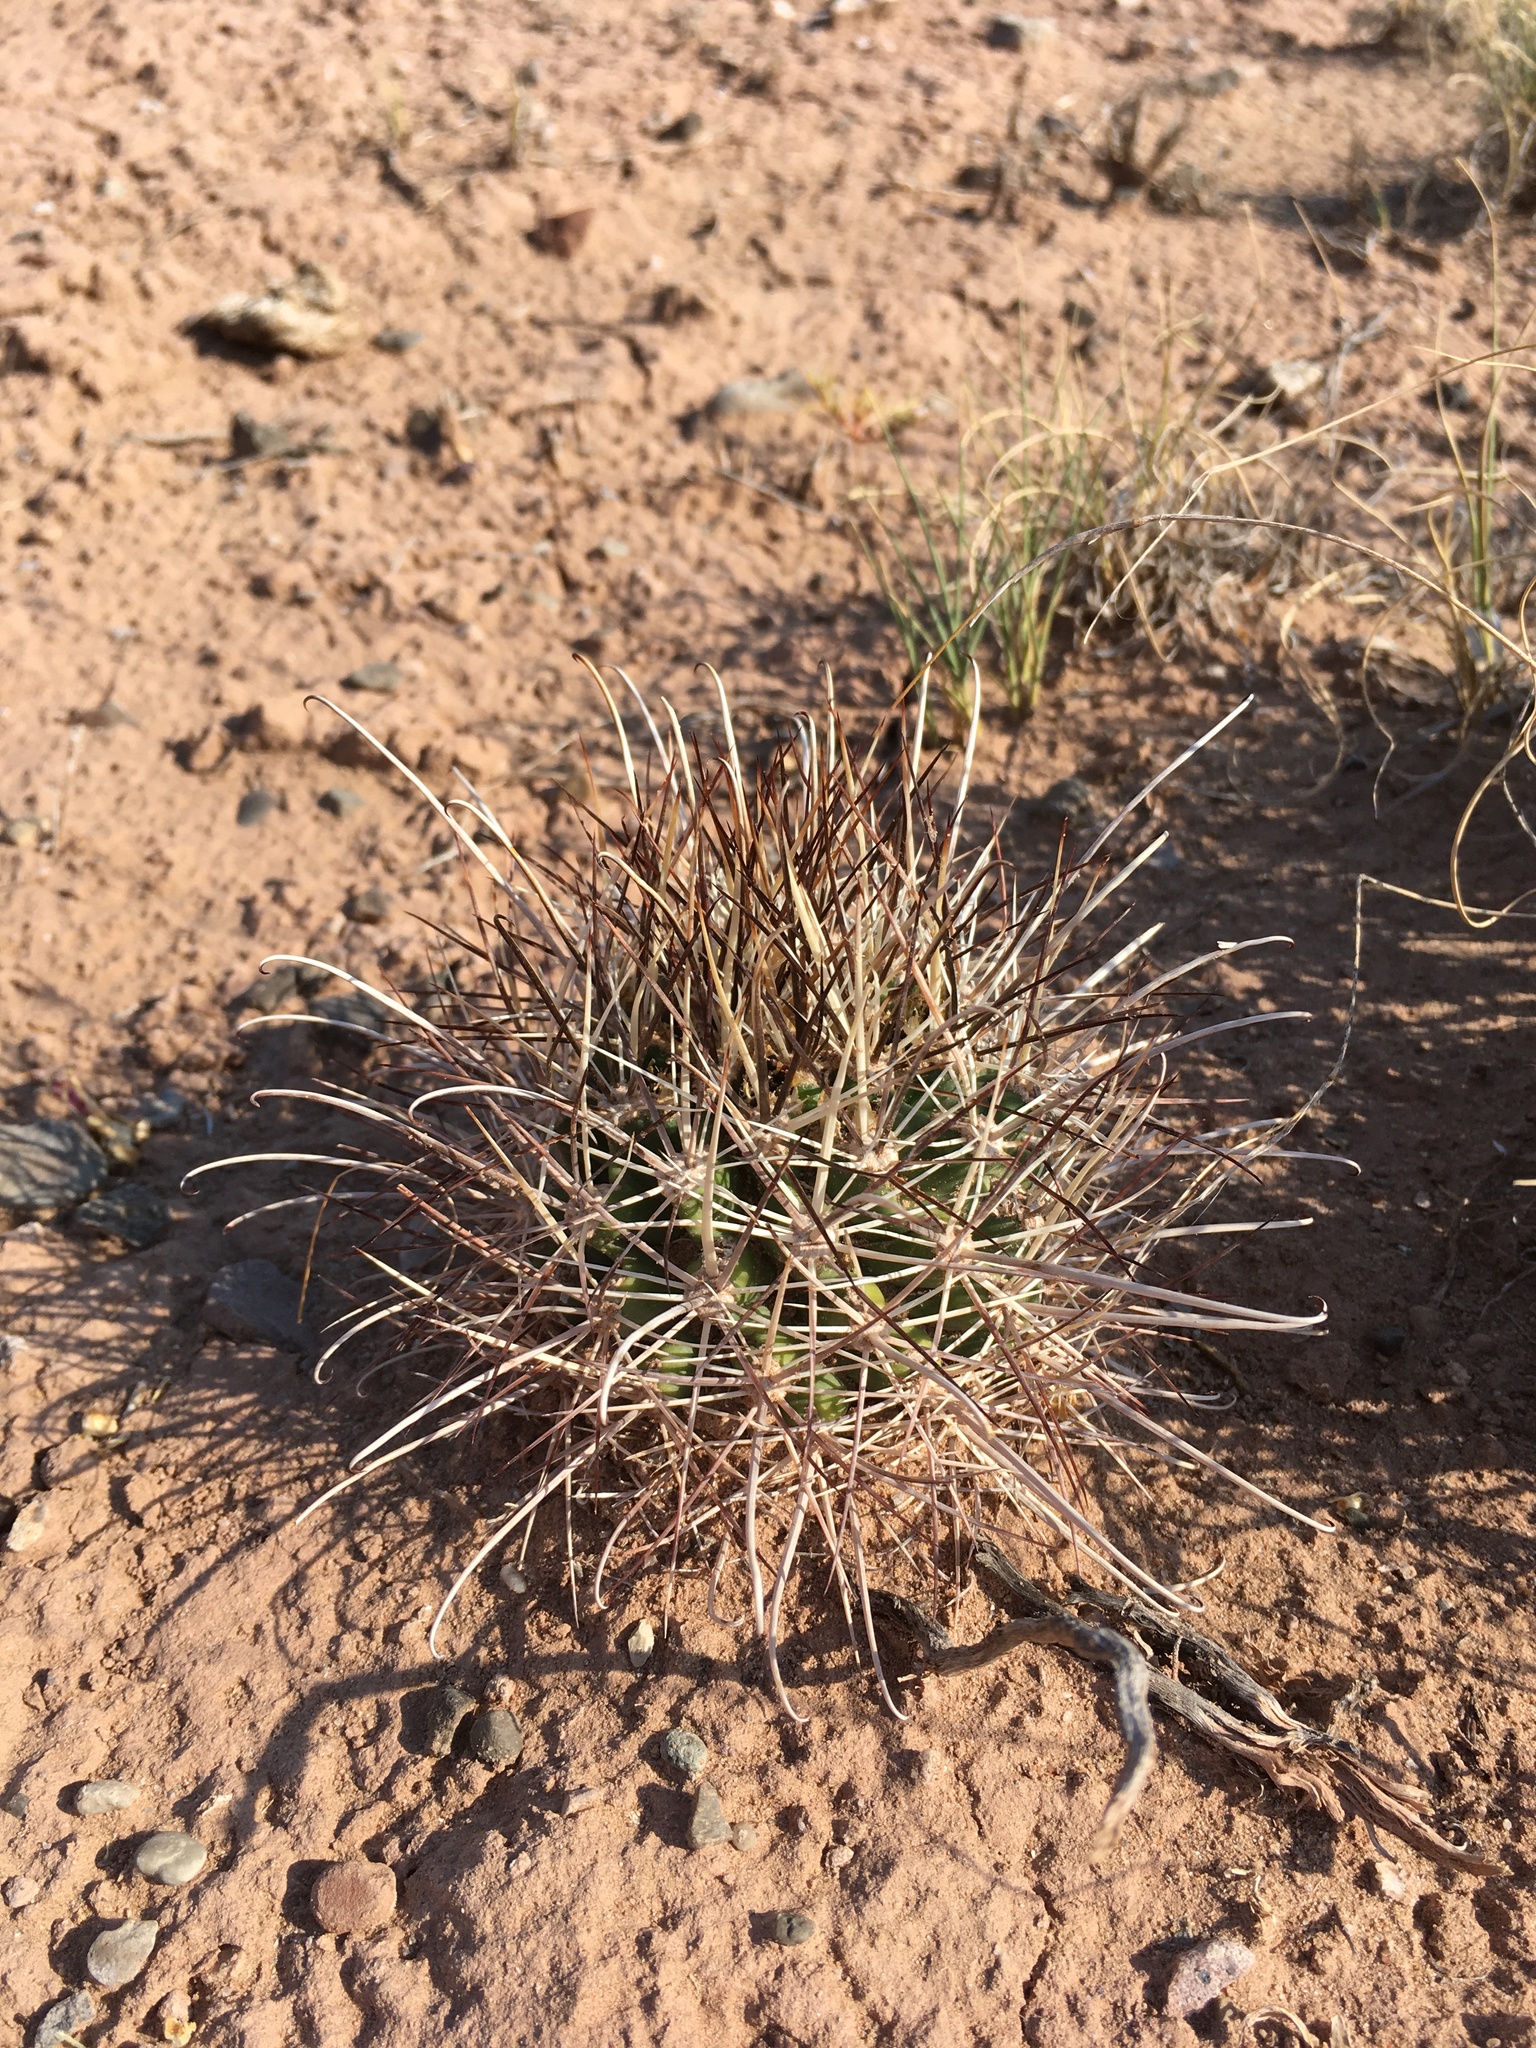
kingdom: Plantae
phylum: Tracheophyta
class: Magnoliopsida
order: Caryophyllales
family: Cactaceae
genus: Sclerocactus
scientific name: Sclerocactus parviflorus
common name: Small-flower fishhook cactus
